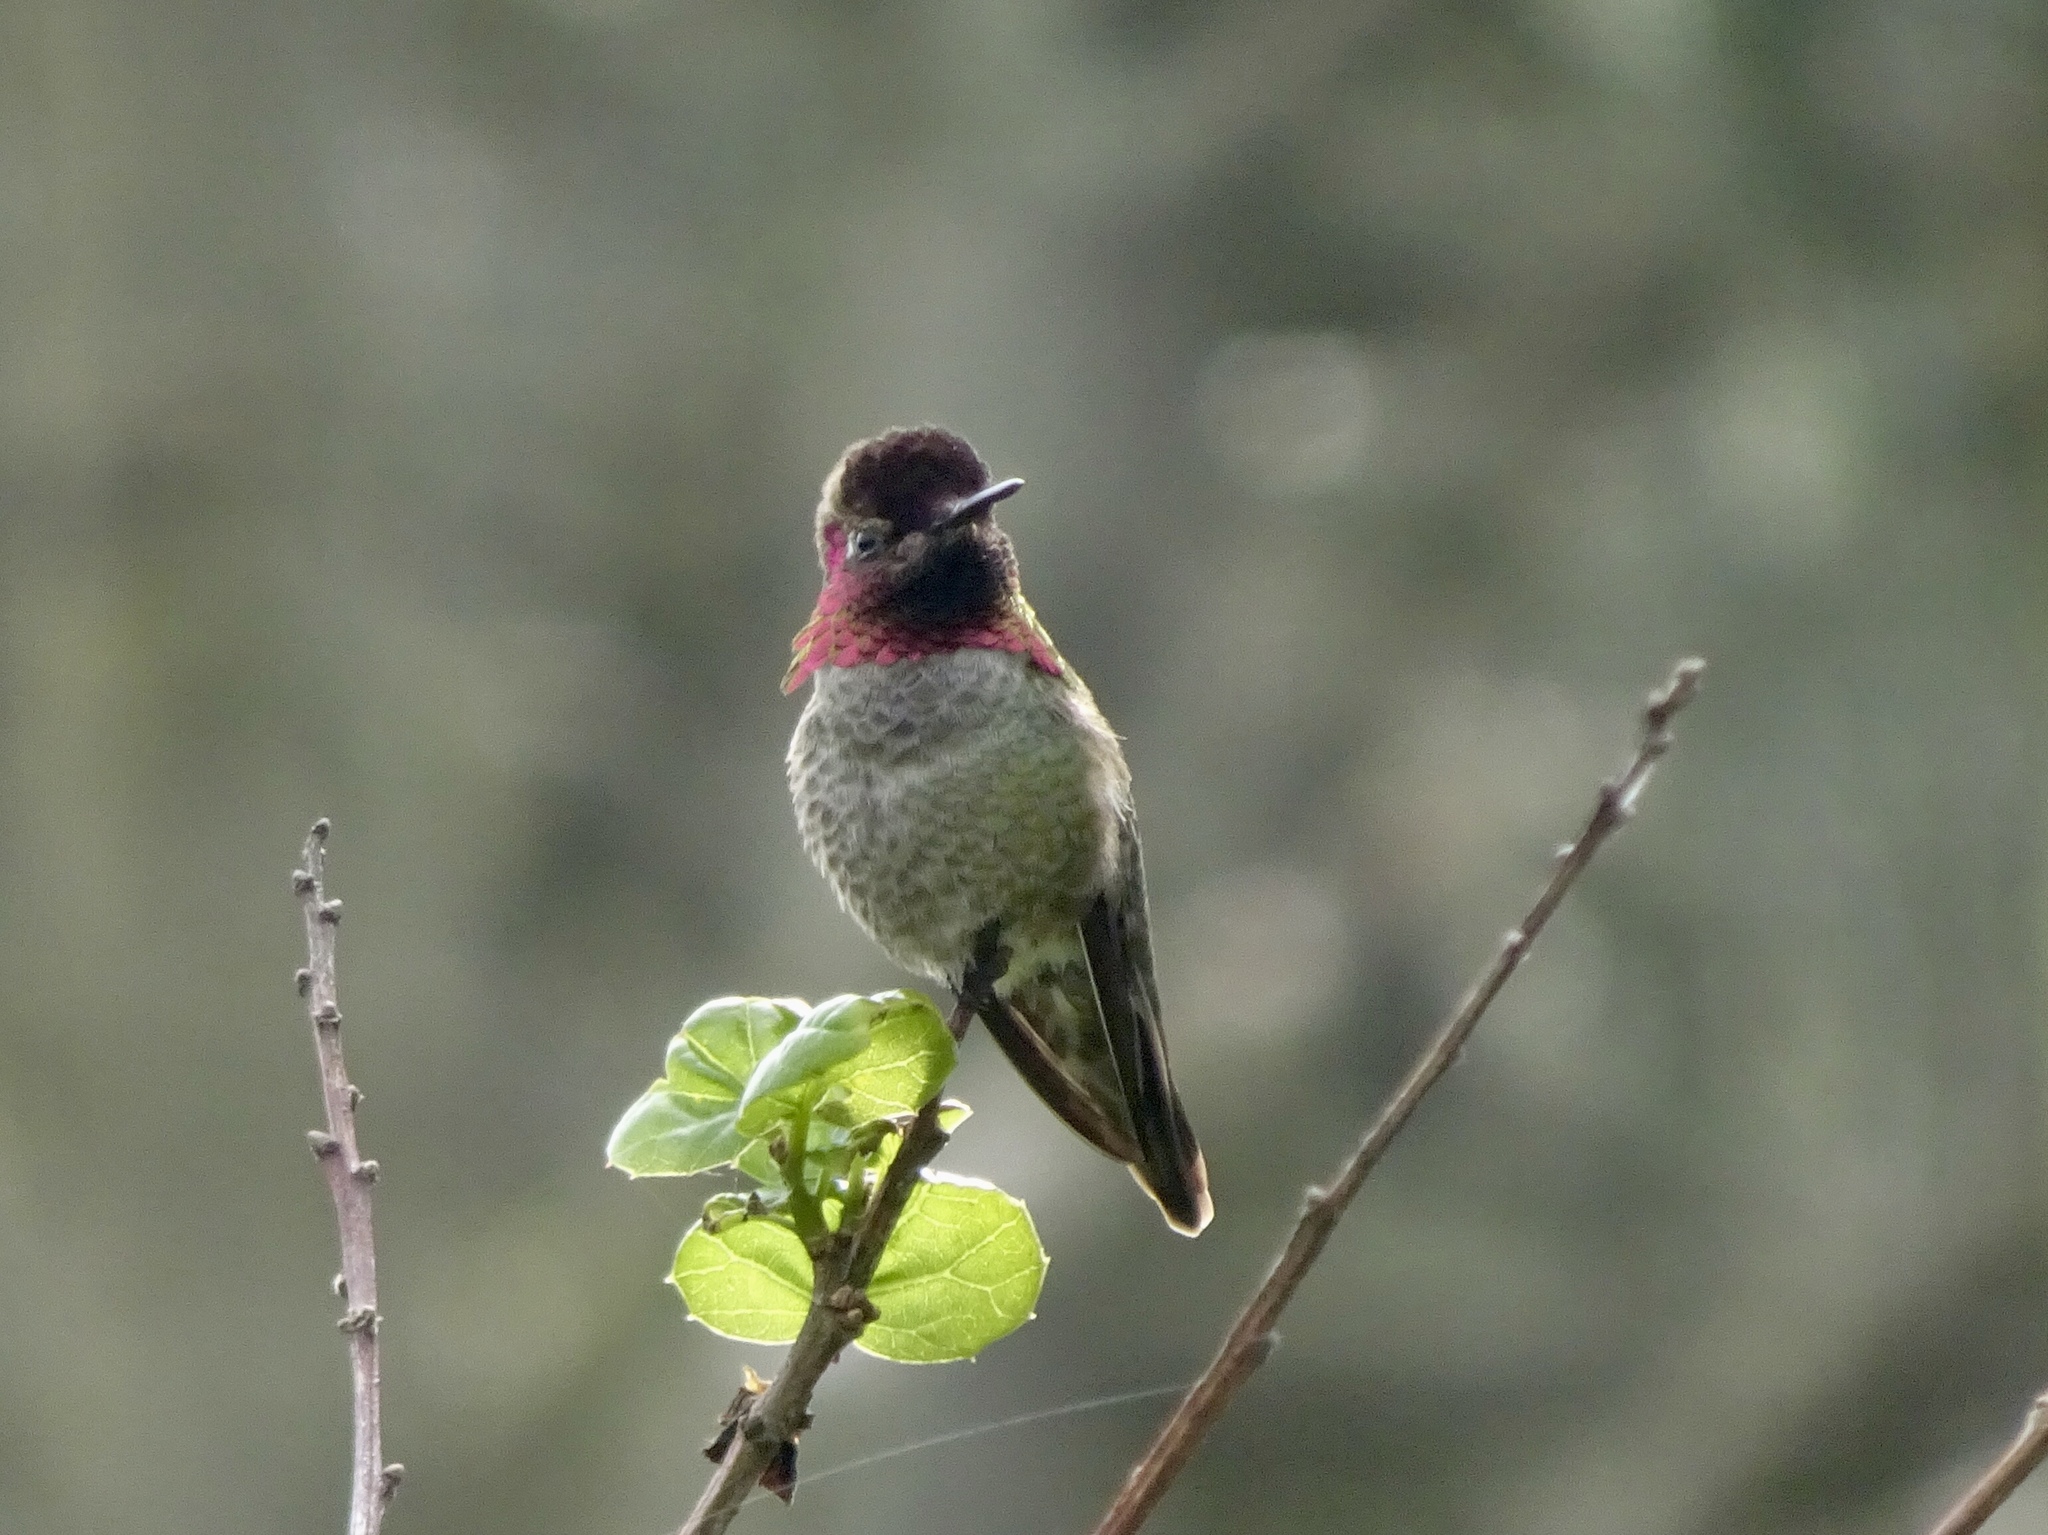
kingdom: Animalia
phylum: Chordata
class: Aves
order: Apodiformes
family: Trochilidae
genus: Calypte
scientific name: Calypte anna
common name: Anna's hummingbird
